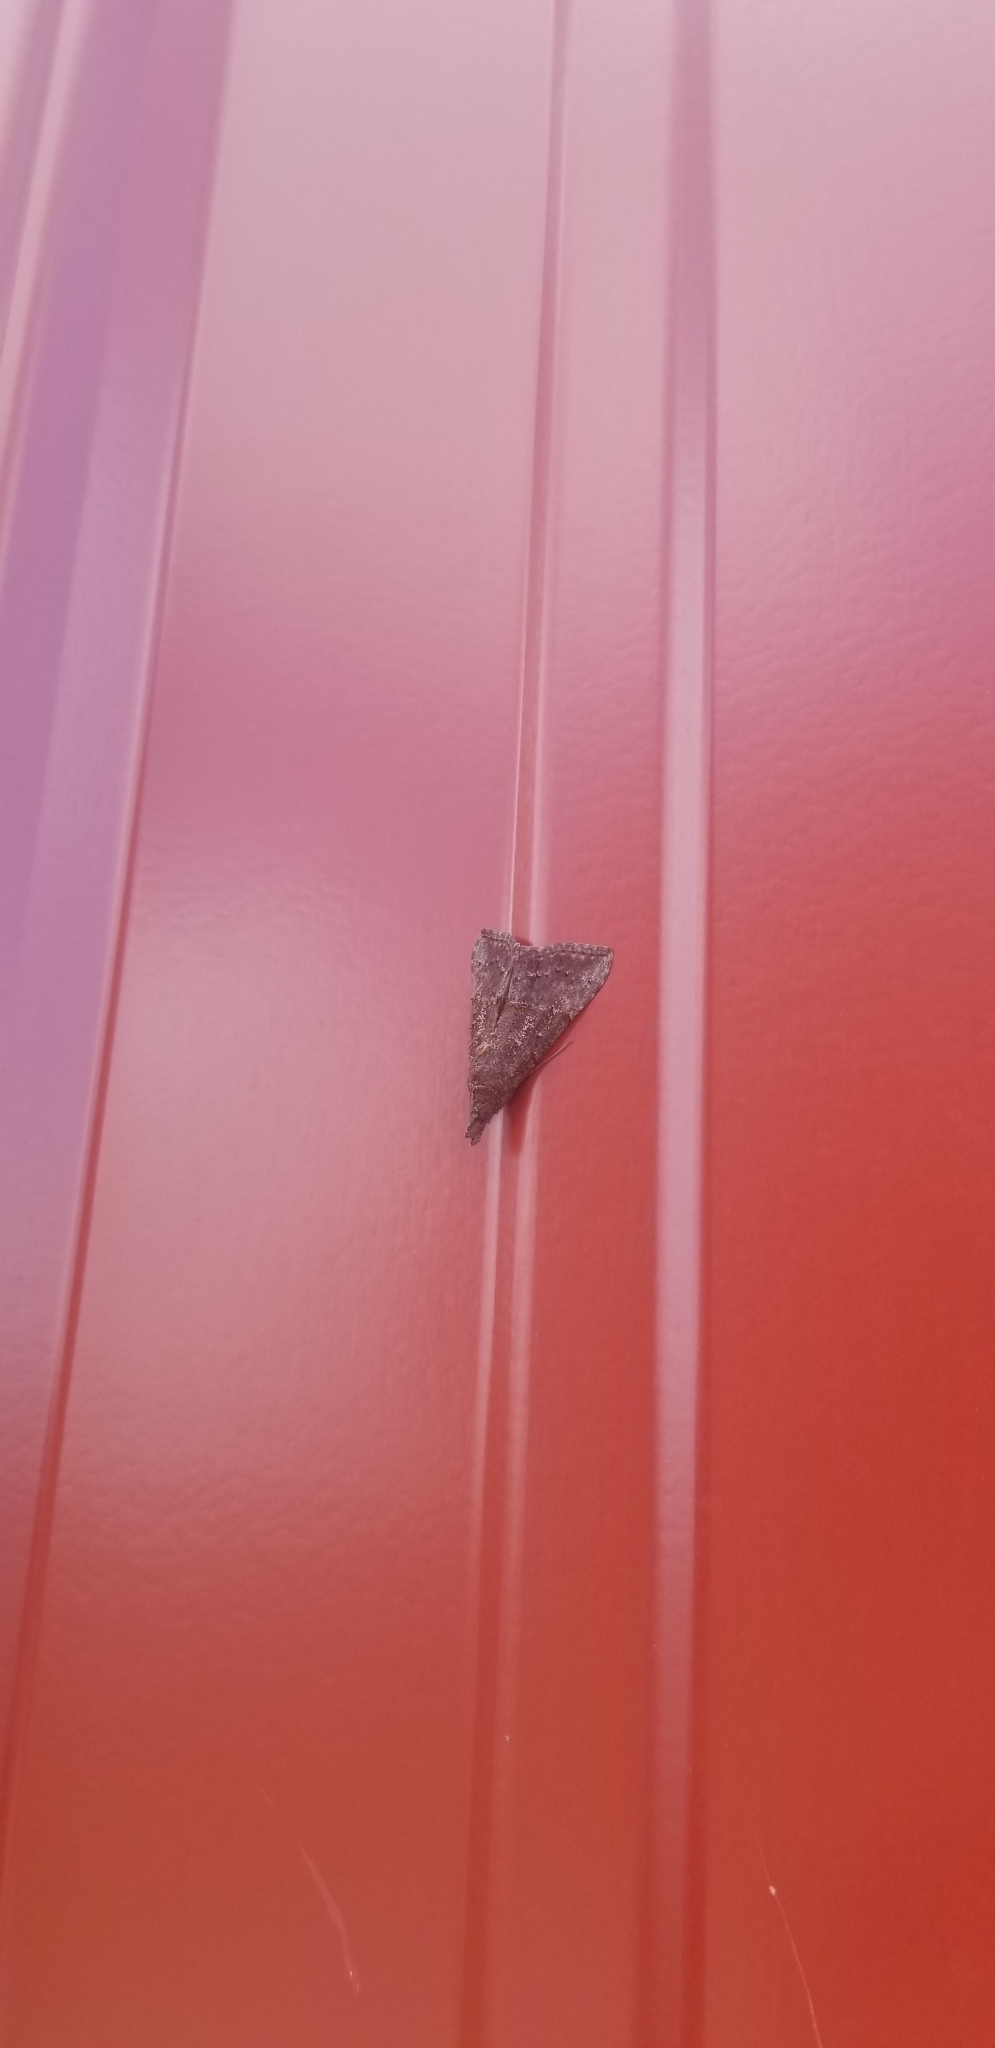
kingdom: Animalia
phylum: Arthropoda
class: Insecta
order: Lepidoptera
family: Erebidae
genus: Hypena
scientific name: Hypena scabra
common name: Green cloverworm
